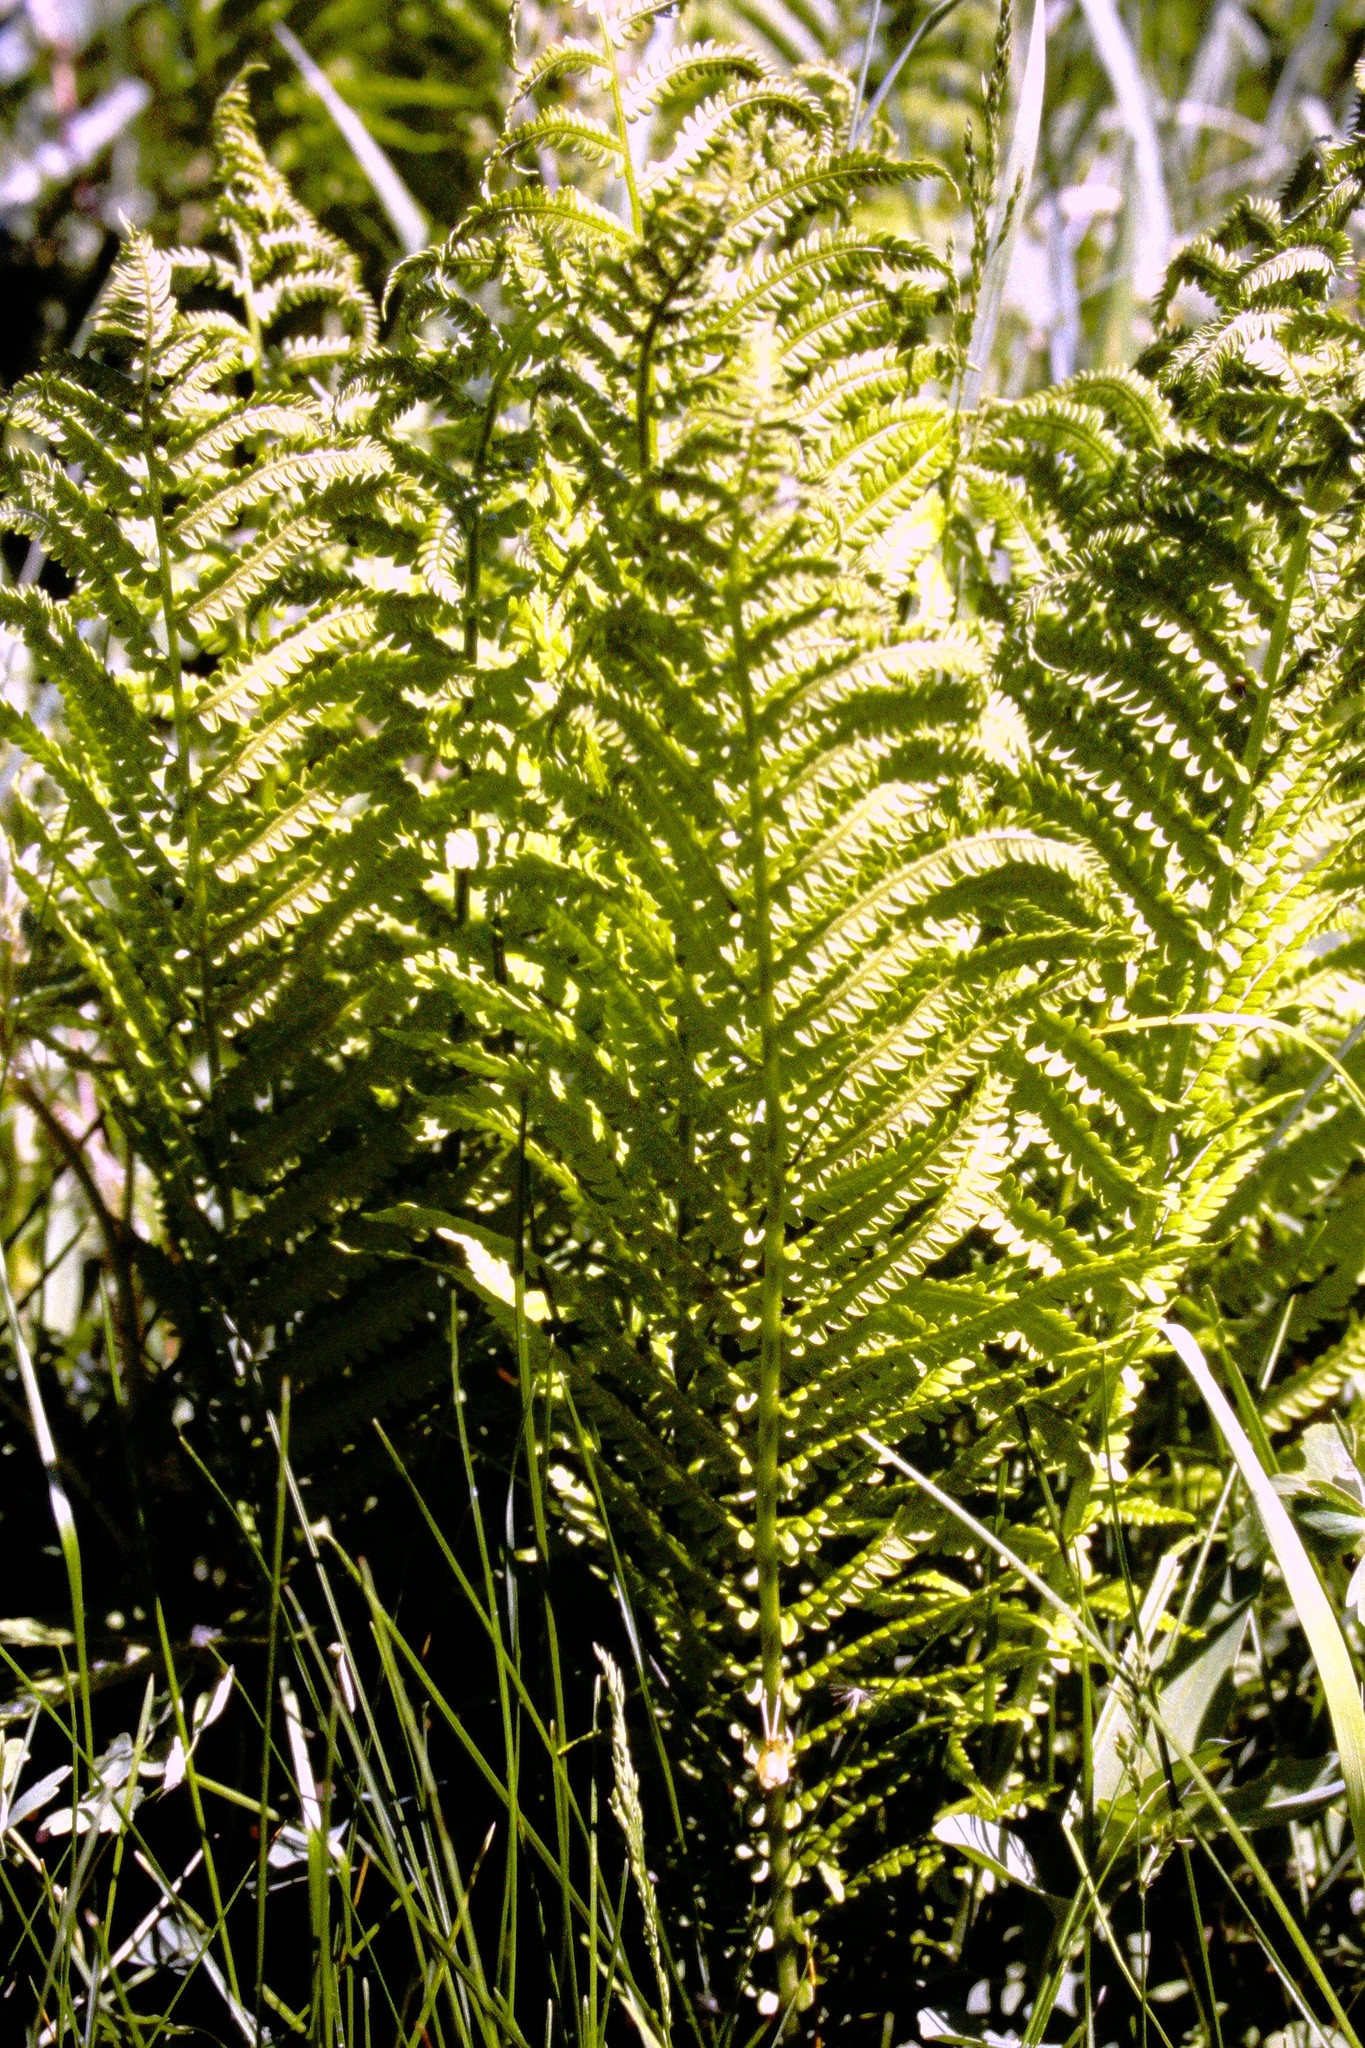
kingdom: Plantae
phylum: Tracheophyta
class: Polypodiopsida
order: Polypodiales
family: Onocleaceae
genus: Matteuccia
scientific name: Matteuccia struthiopteris
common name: Ostrich fern
